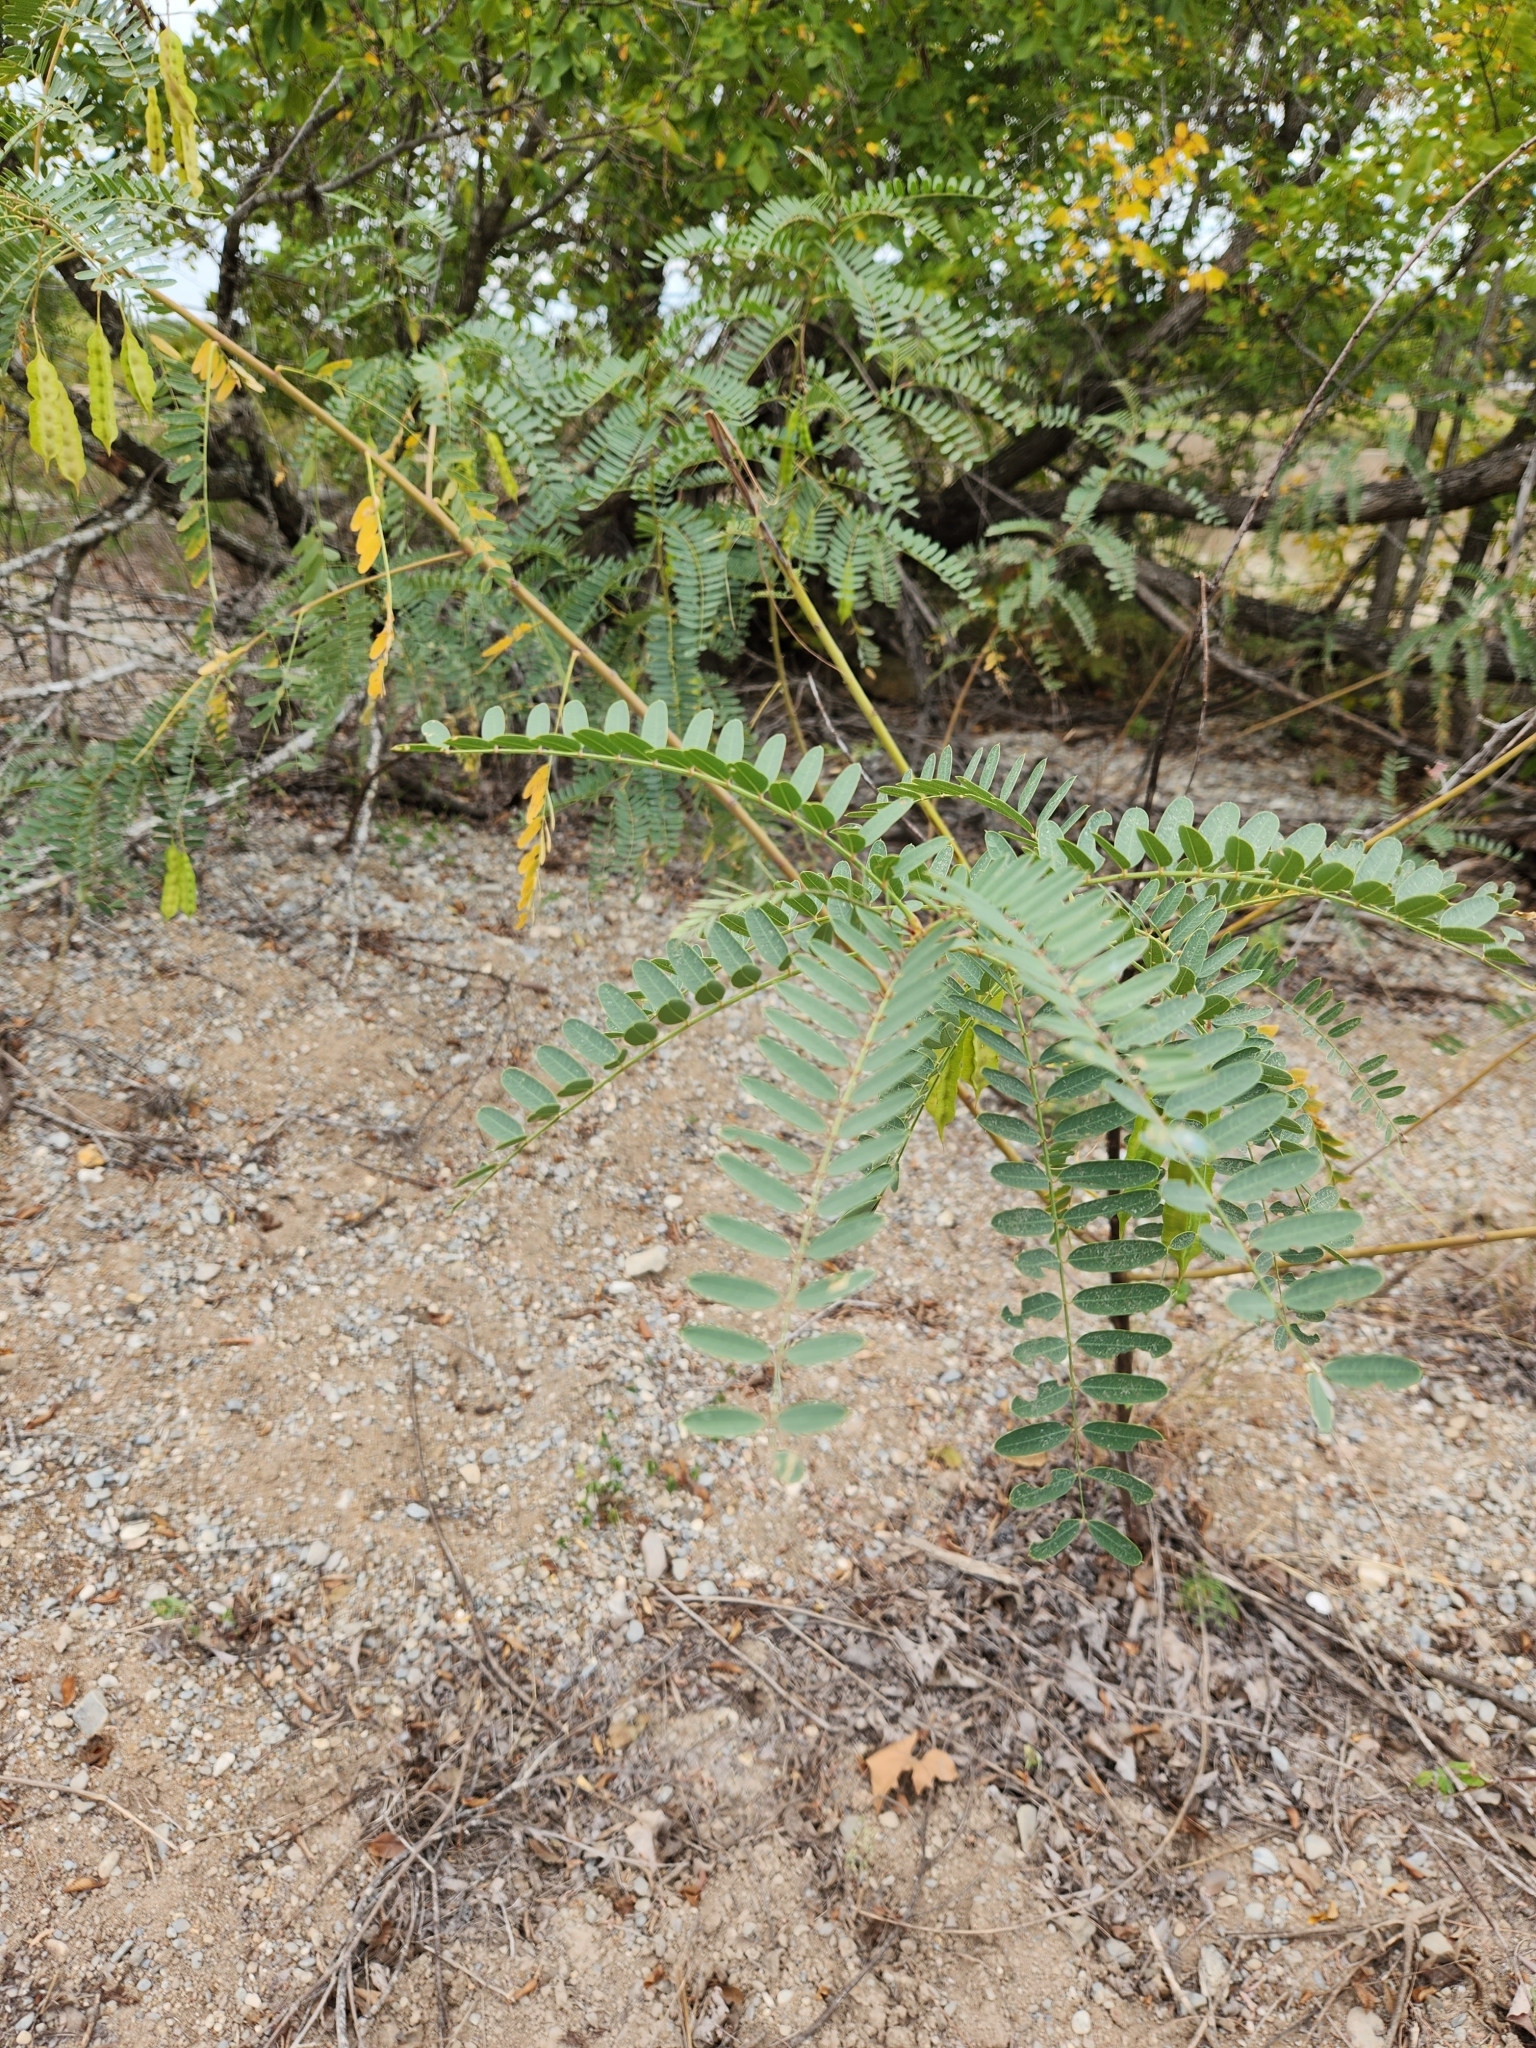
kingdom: Plantae
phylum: Tracheophyta
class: Magnoliopsida
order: Fabales
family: Fabaceae
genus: Sesbania
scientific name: Sesbania drummondii
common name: Poison-bean
